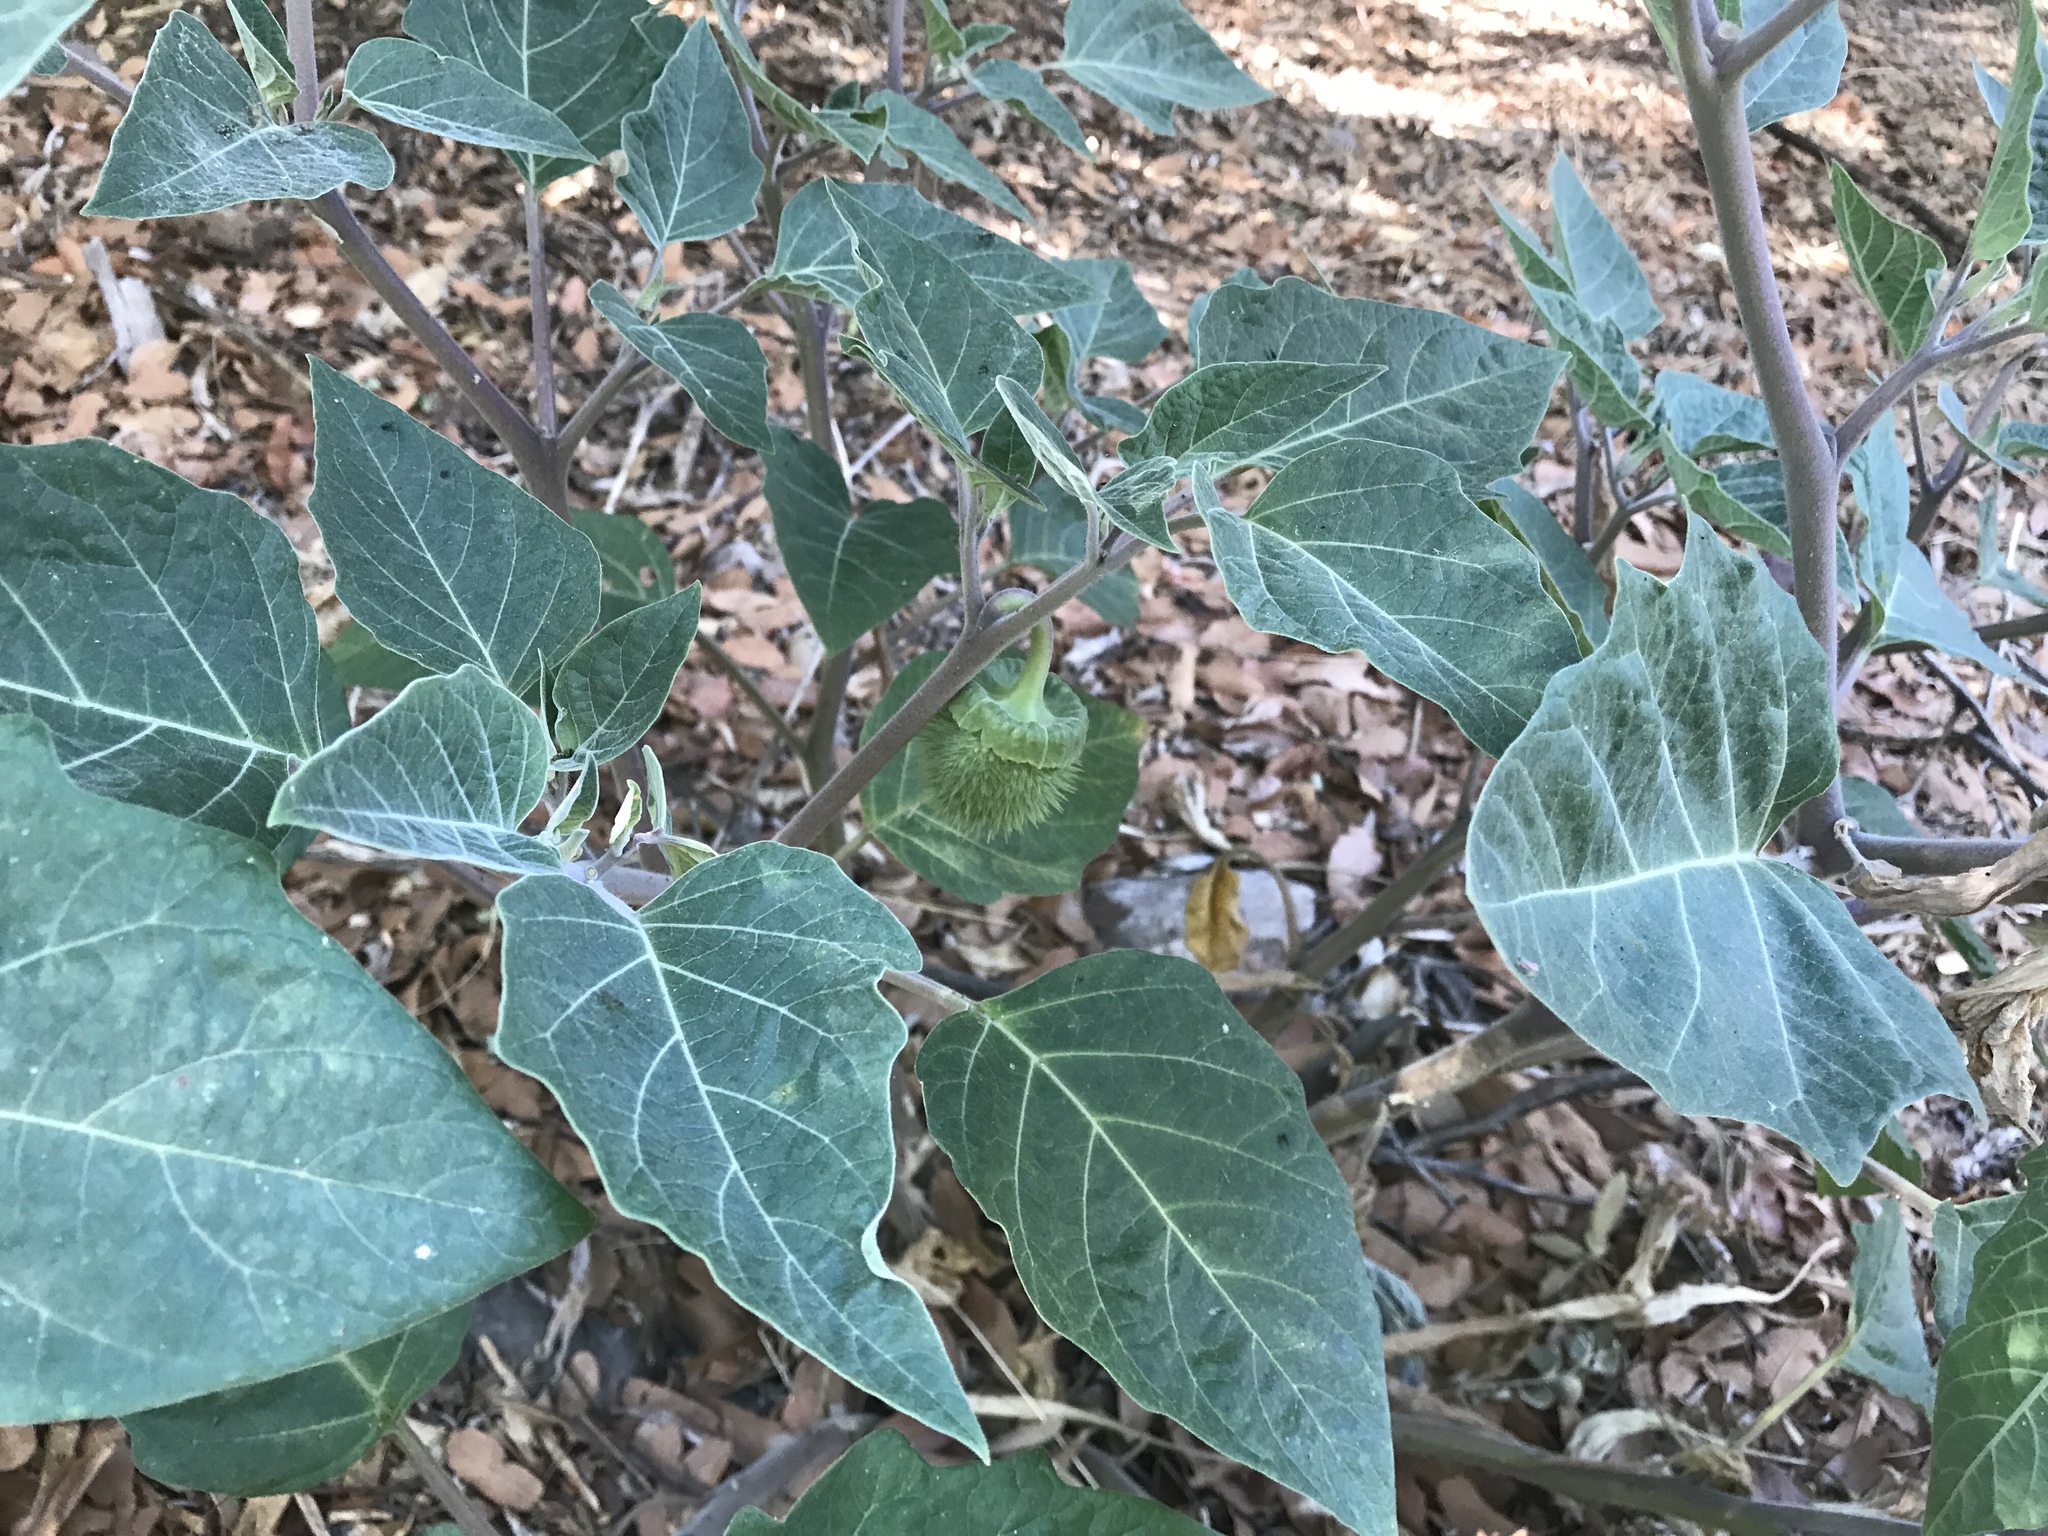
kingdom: Plantae
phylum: Tracheophyta
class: Magnoliopsida
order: Solanales
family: Solanaceae
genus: Datura
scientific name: Datura wrightii
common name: Sacred thorn-apple
